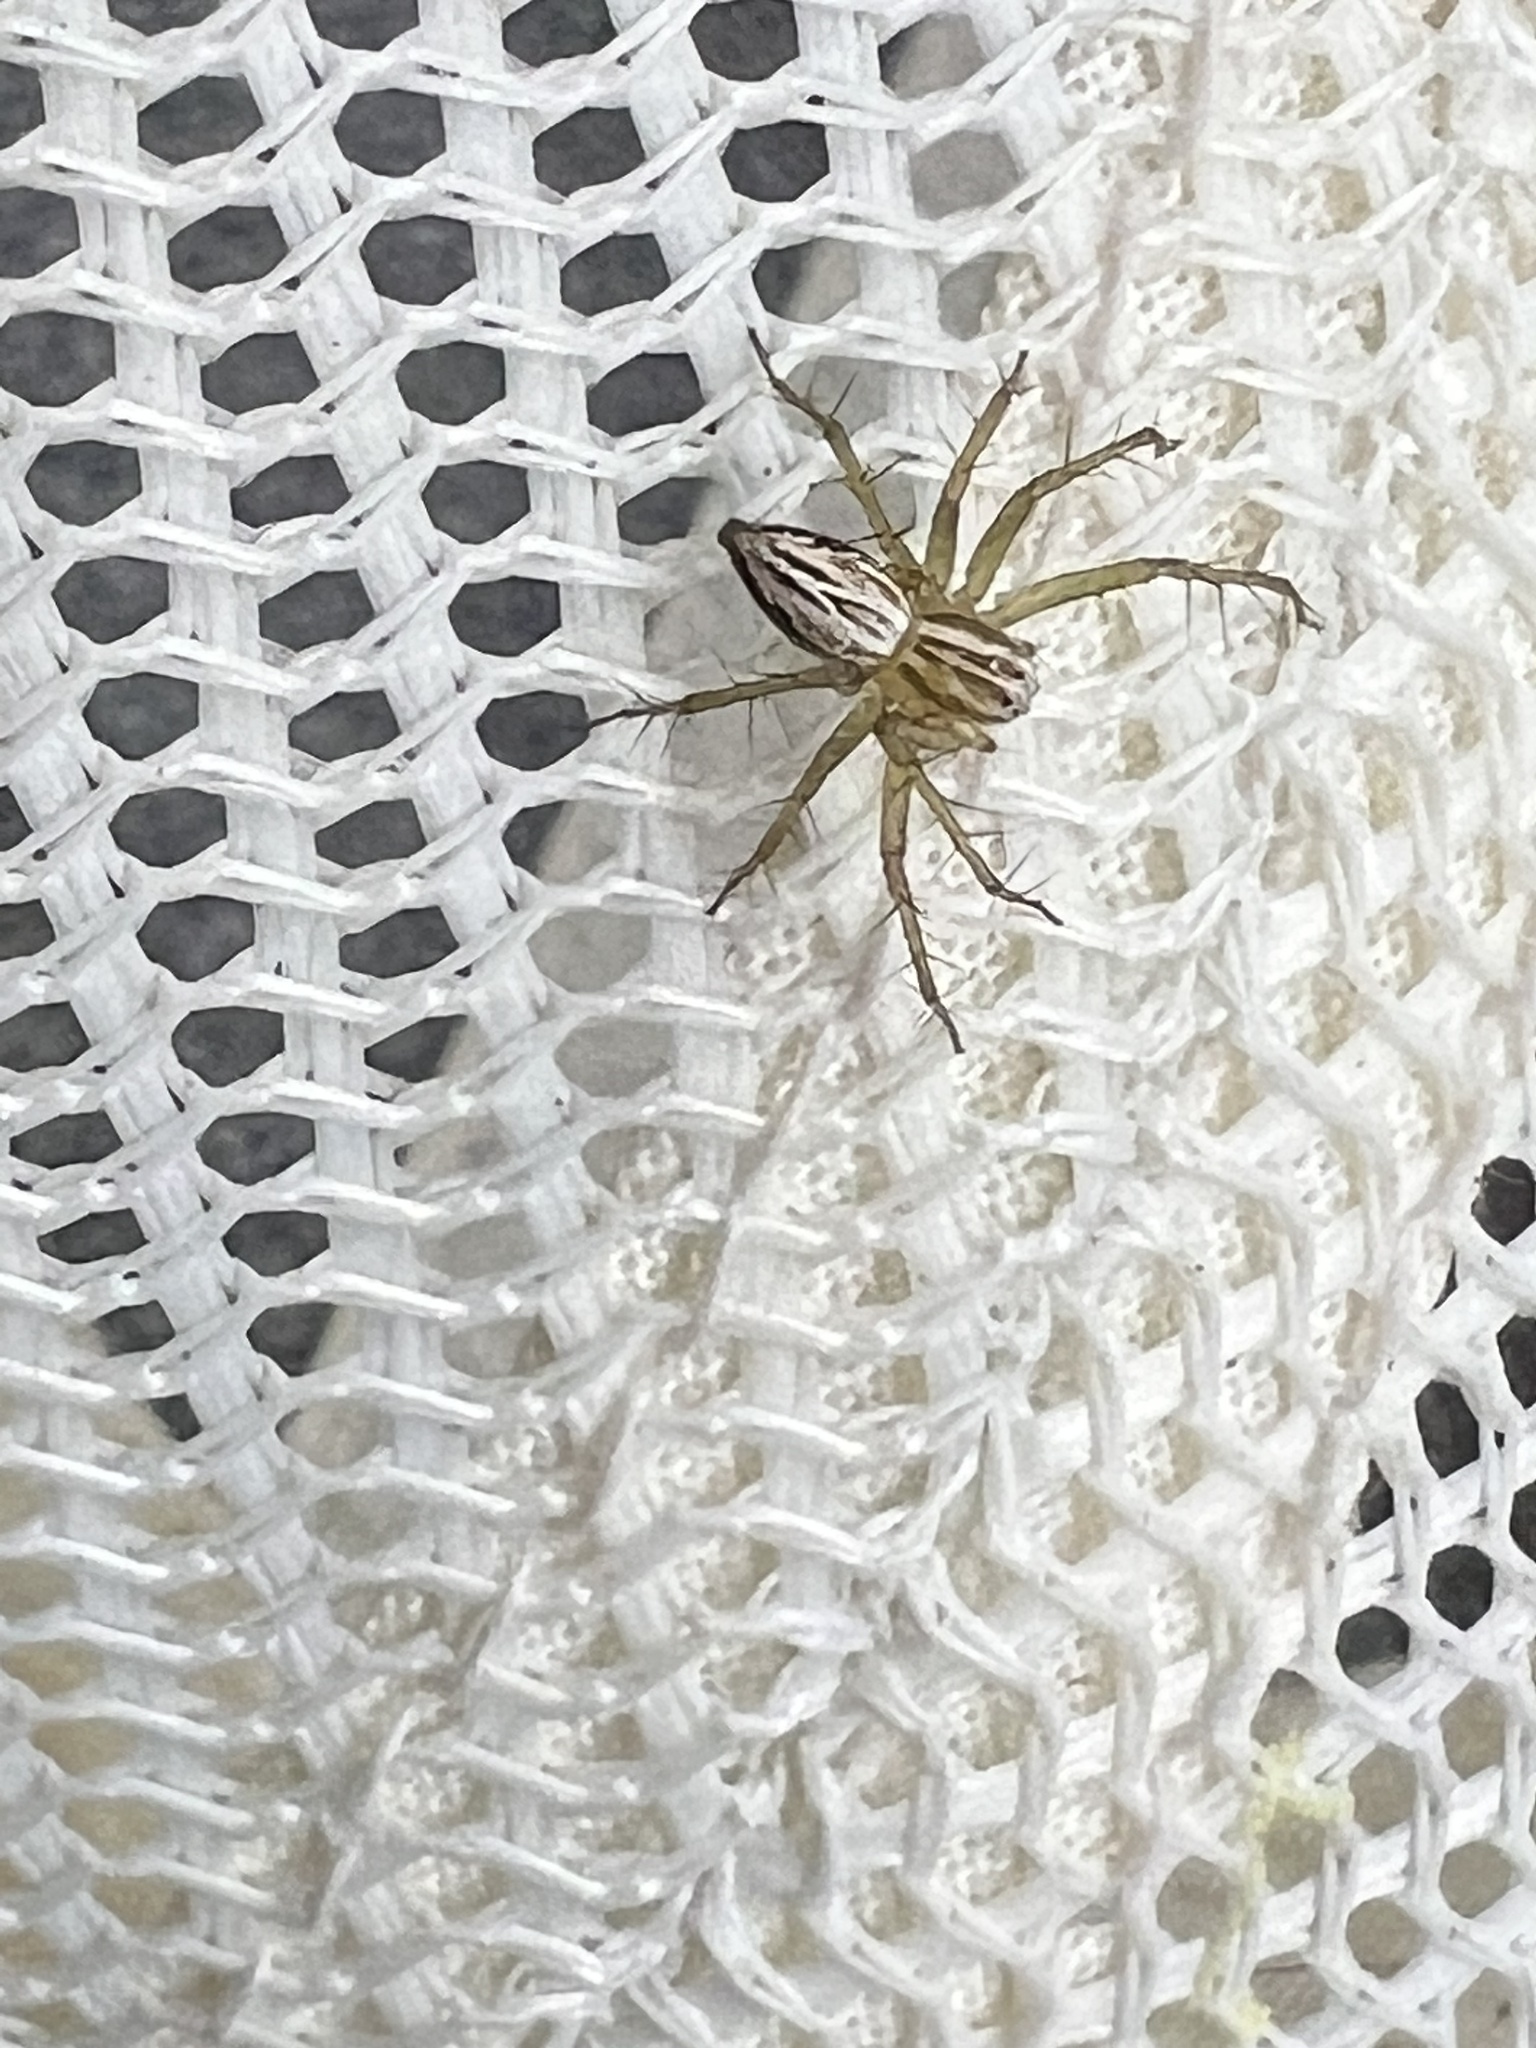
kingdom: Animalia
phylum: Arthropoda
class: Arachnida
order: Araneae
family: Oxyopidae
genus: Oxyopes
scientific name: Oxyopes salticus
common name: Lynx spiders
